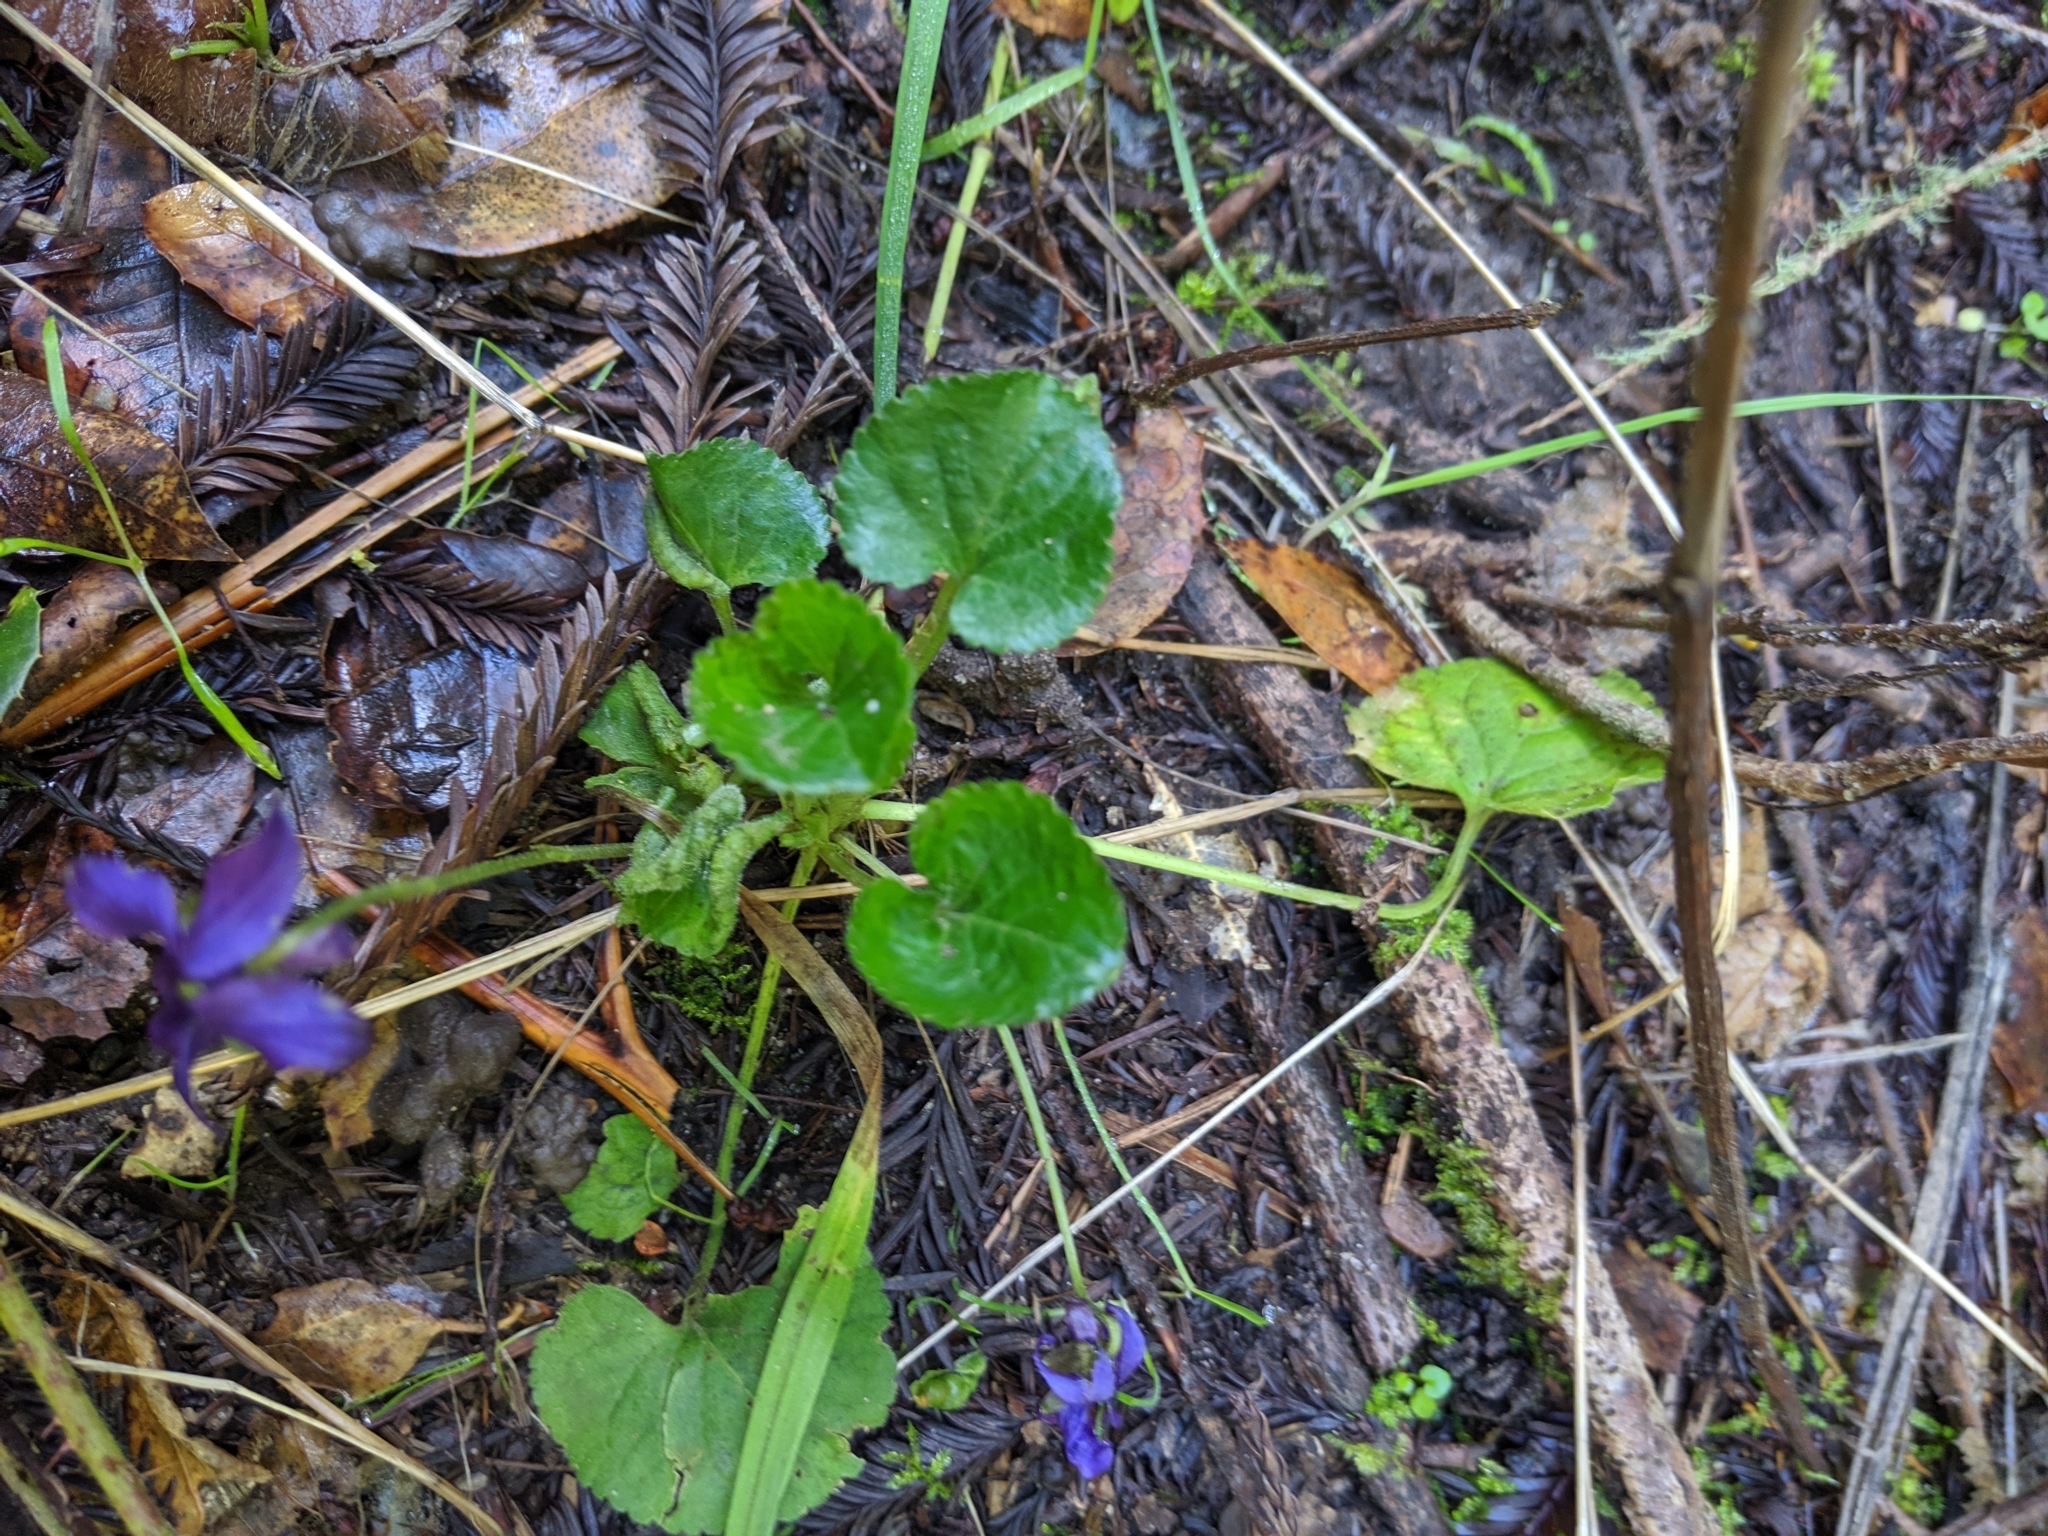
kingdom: Plantae
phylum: Tracheophyta
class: Magnoliopsida
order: Malpighiales
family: Violaceae
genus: Viola
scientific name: Viola odorata
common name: Sweet violet
